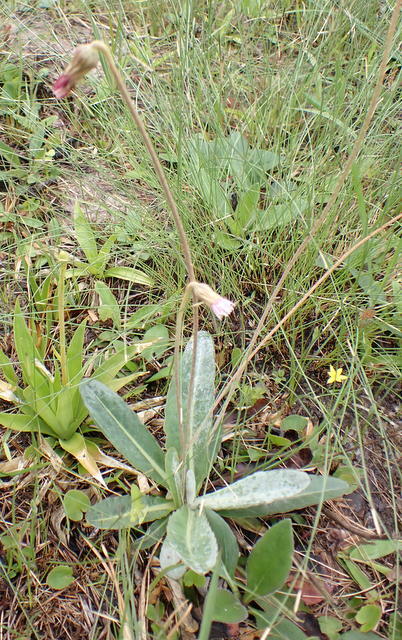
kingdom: Plantae
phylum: Tracheophyta
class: Magnoliopsida
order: Asterales
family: Asteraceae
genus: Chaptalia
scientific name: Chaptalia tomentosa
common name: Woolly sunbonnet
